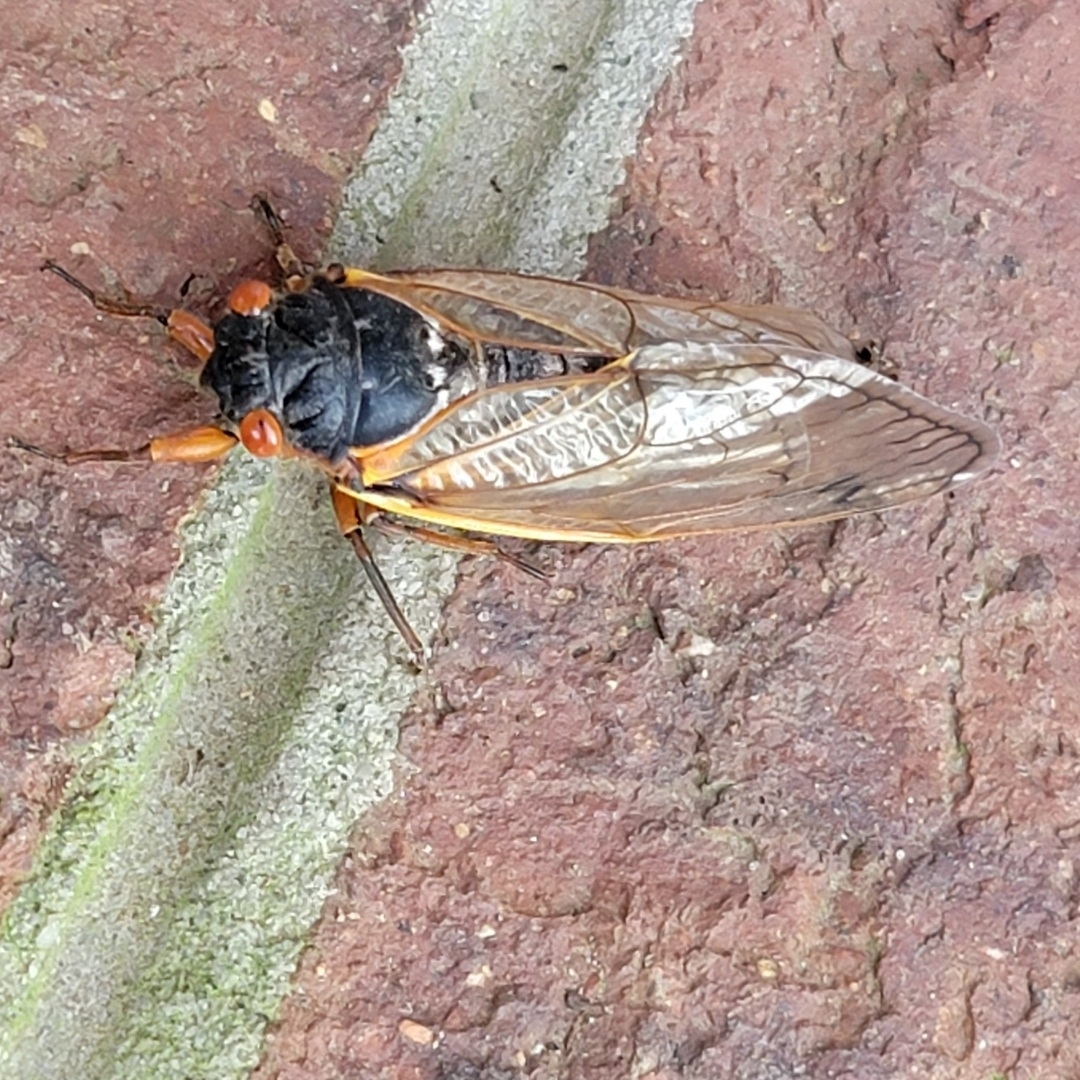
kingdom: Animalia
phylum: Arthropoda
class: Insecta
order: Hemiptera
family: Cicadidae
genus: Magicicada
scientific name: Magicicada septendecim
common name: Periodical cicada
